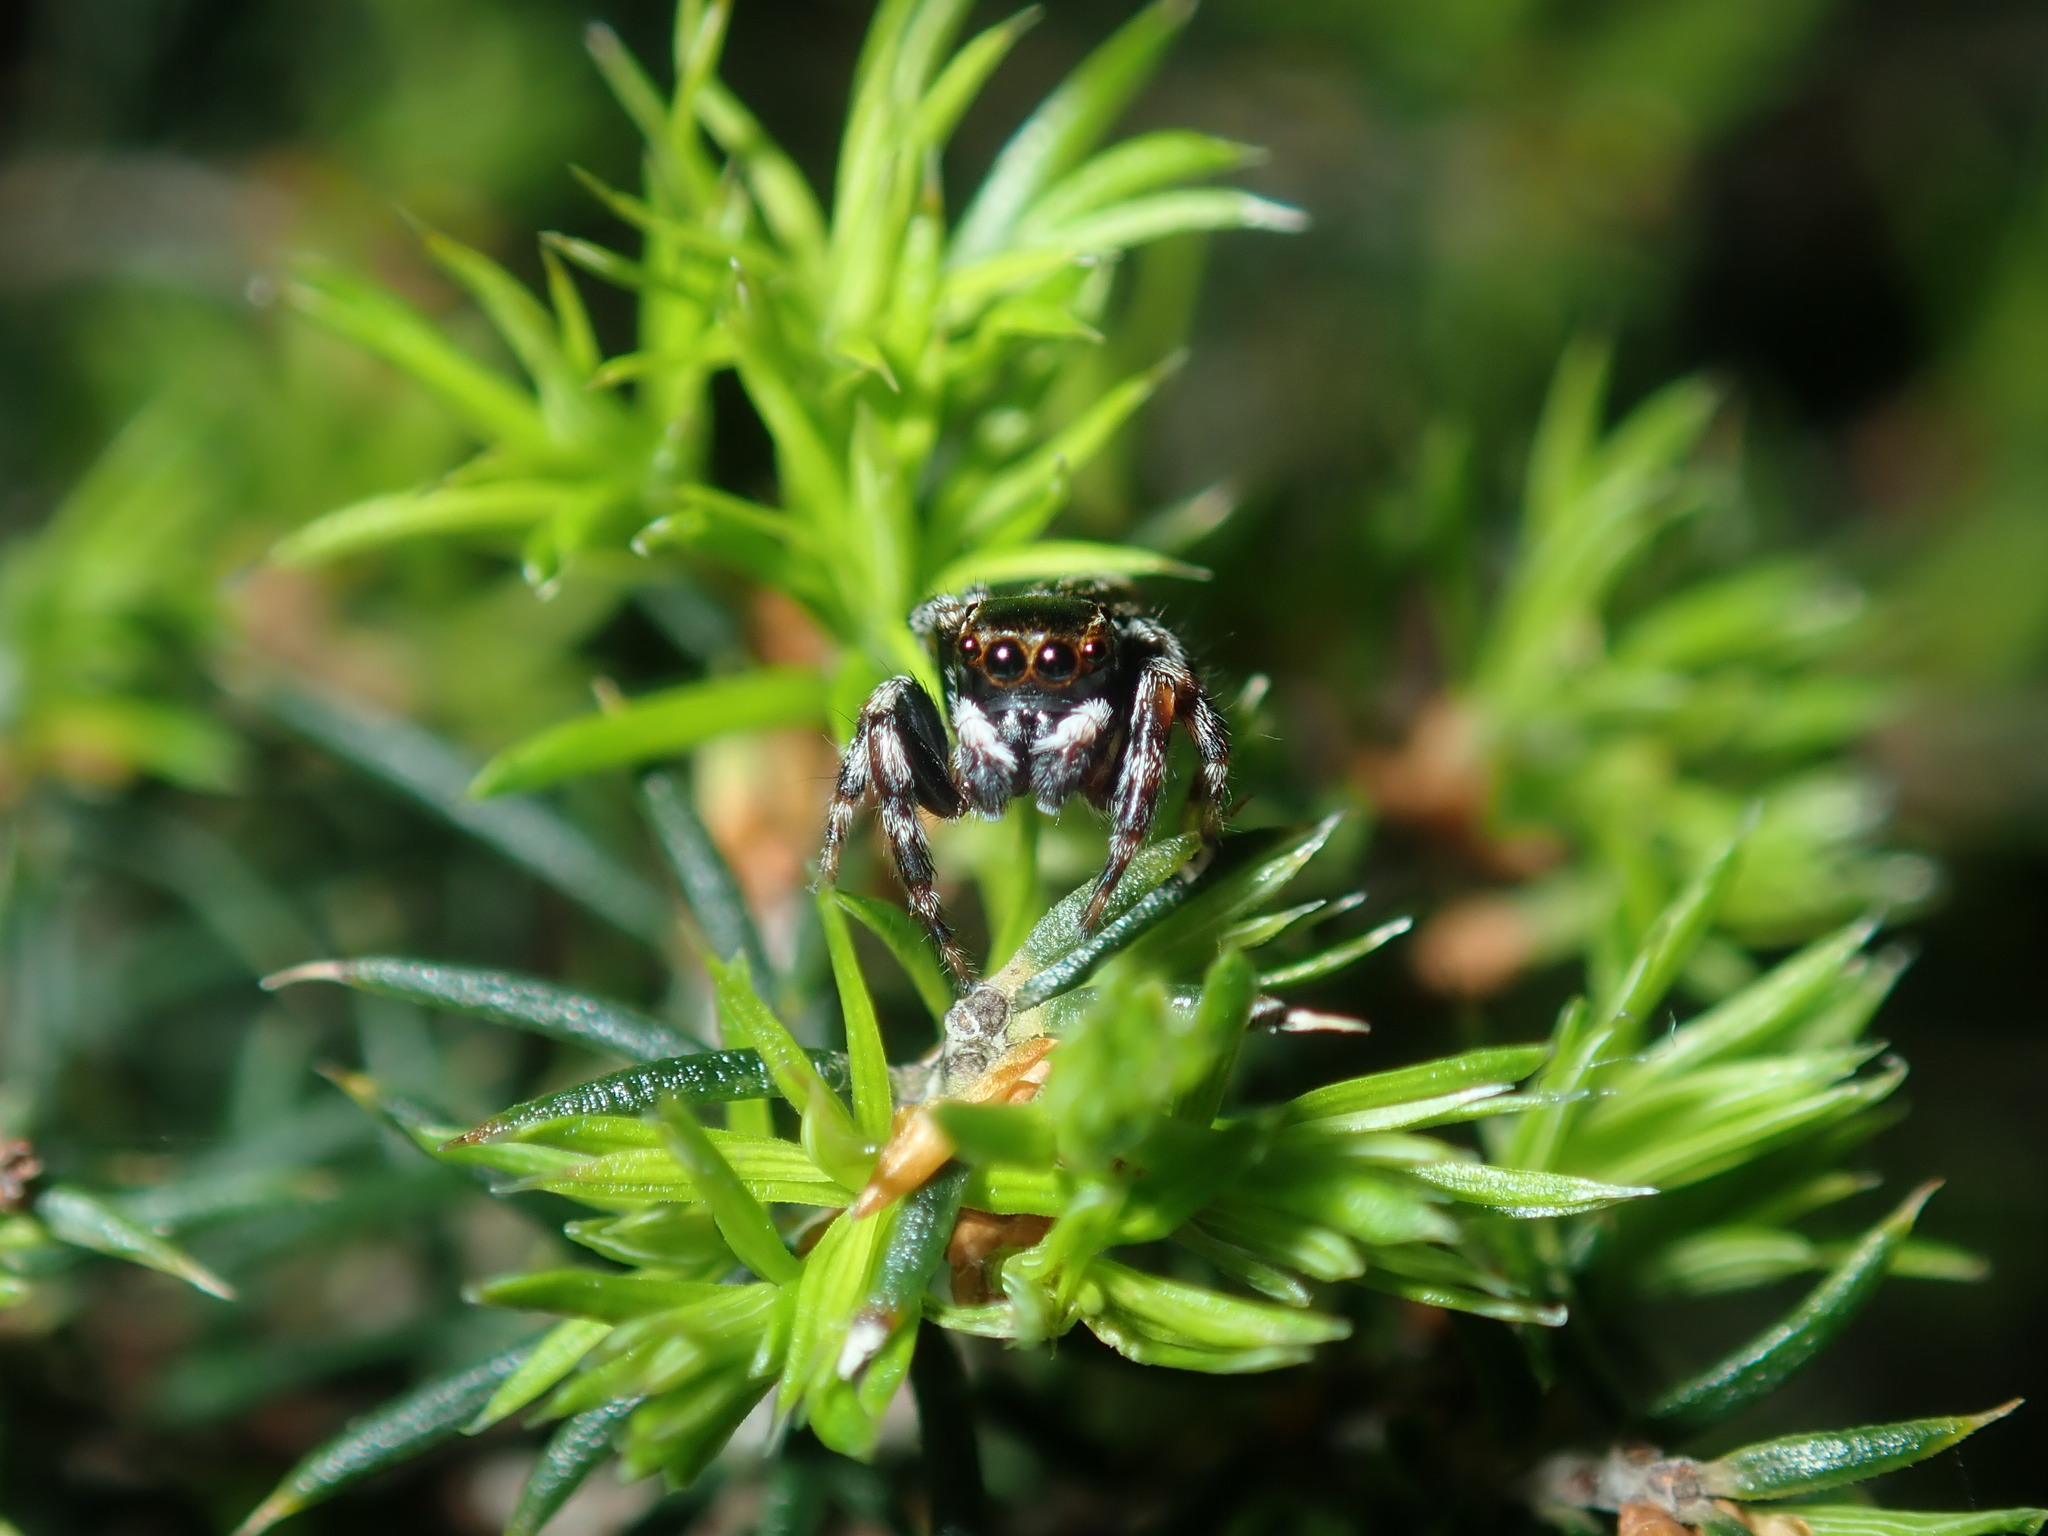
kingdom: Animalia
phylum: Arthropoda
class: Arachnida
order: Araneae
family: Salticidae
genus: Maratus
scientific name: Maratus scutulatus
